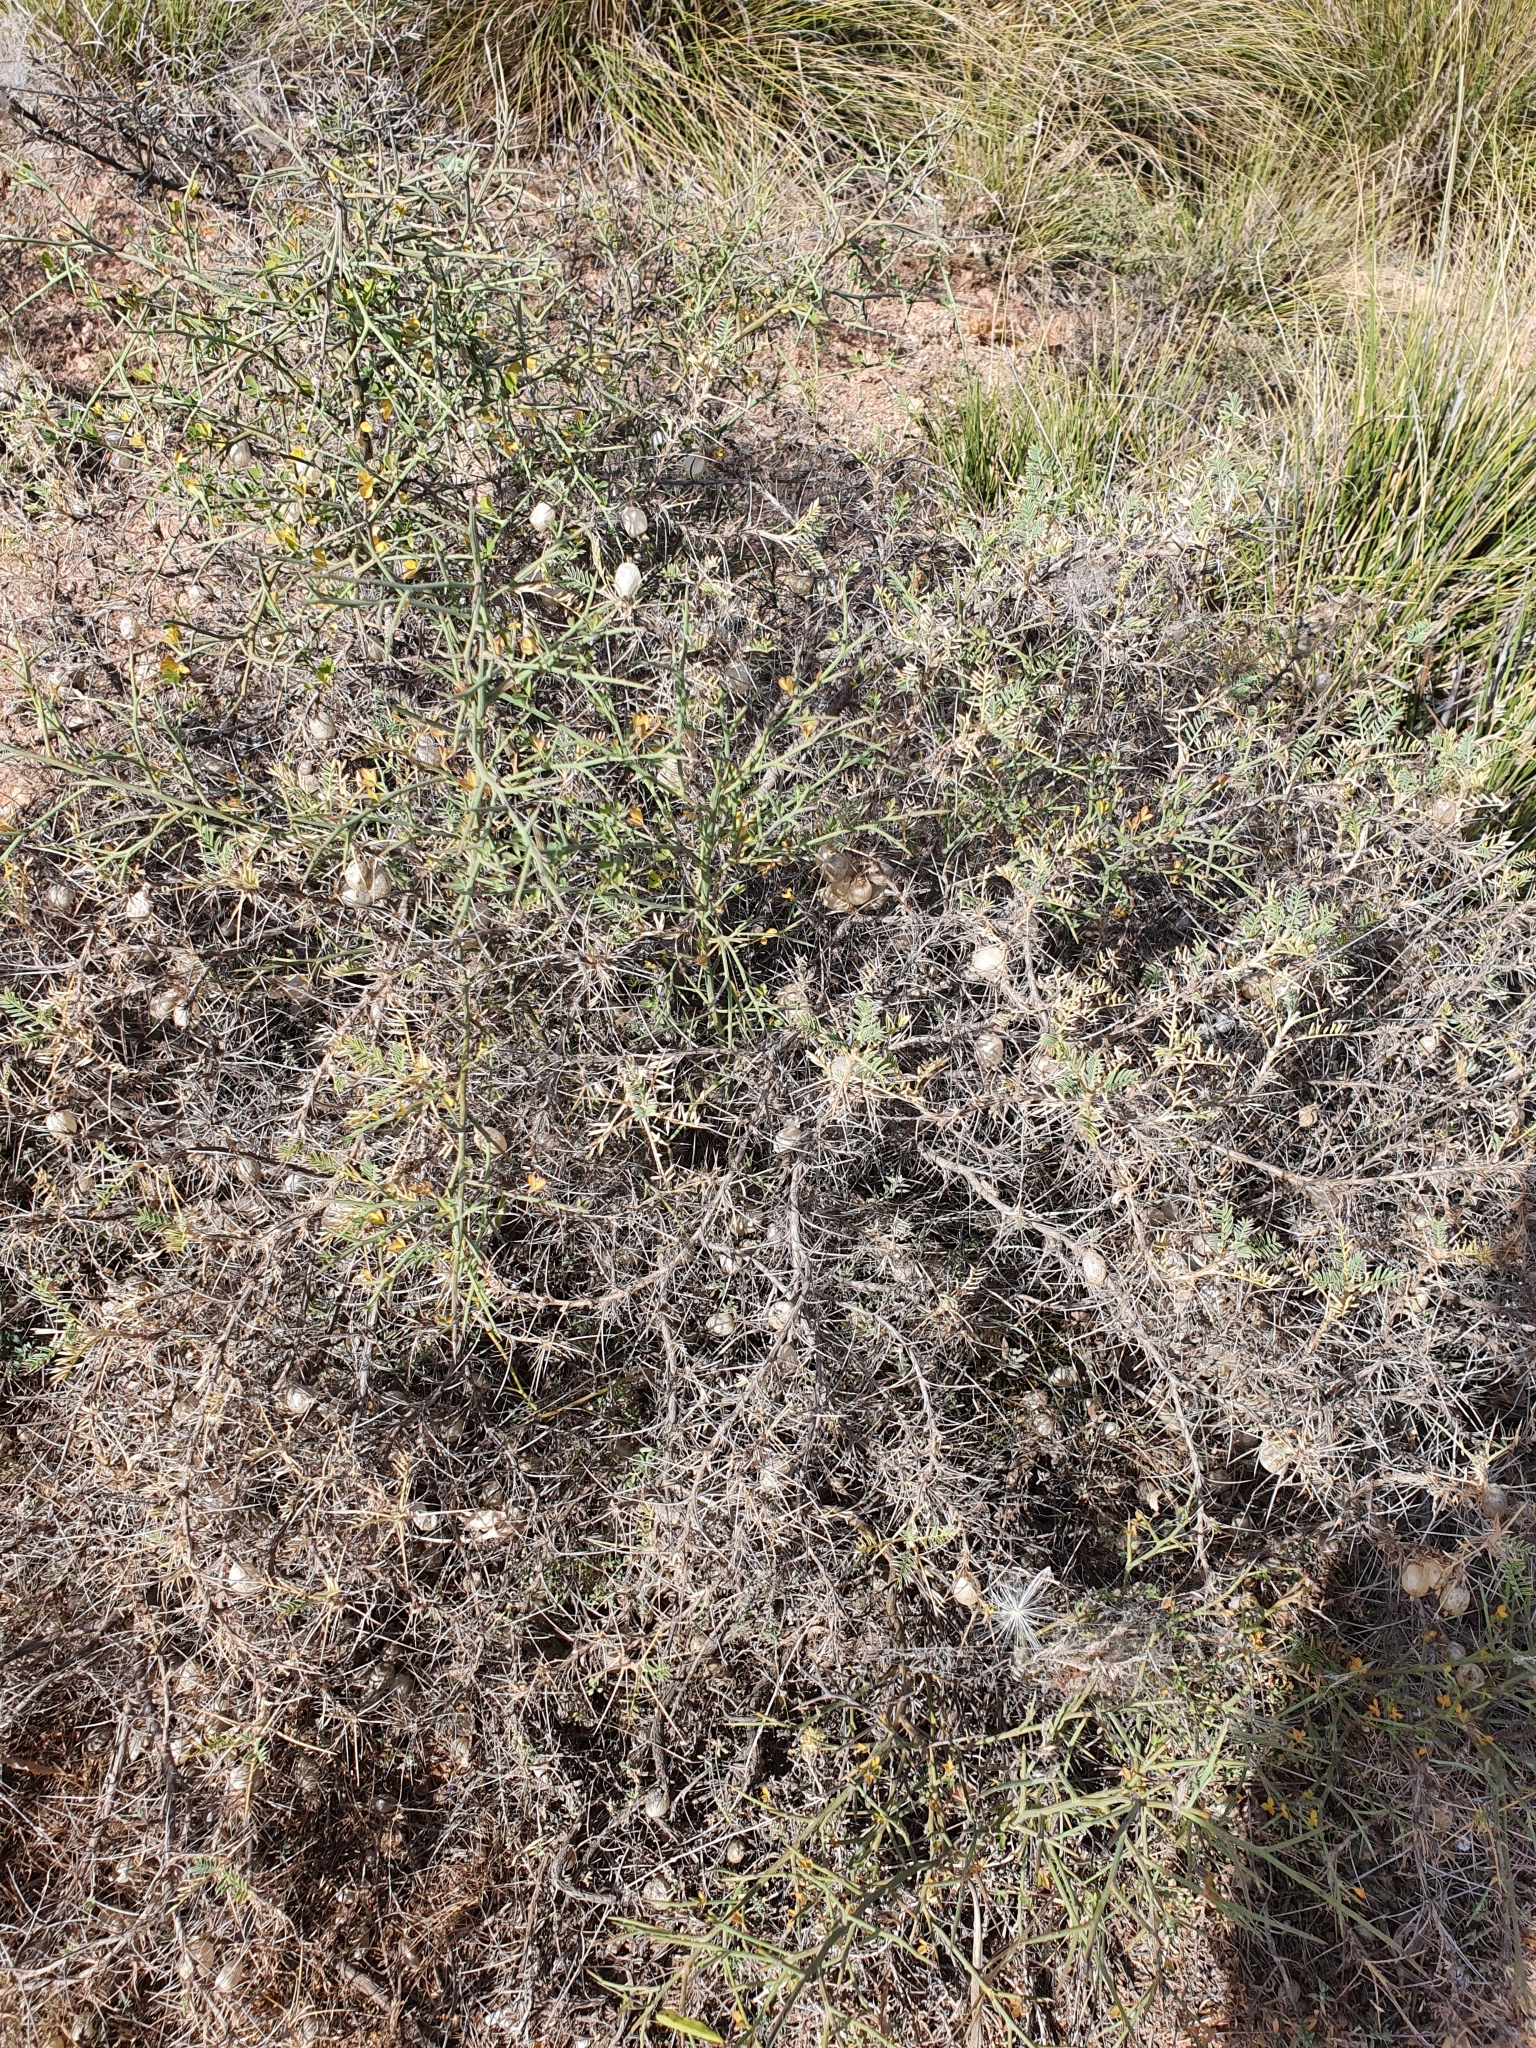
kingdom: Plantae
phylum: Tracheophyta
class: Magnoliopsida
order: Fabales
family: Fabaceae
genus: Astragalus
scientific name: Astragalus armatus
